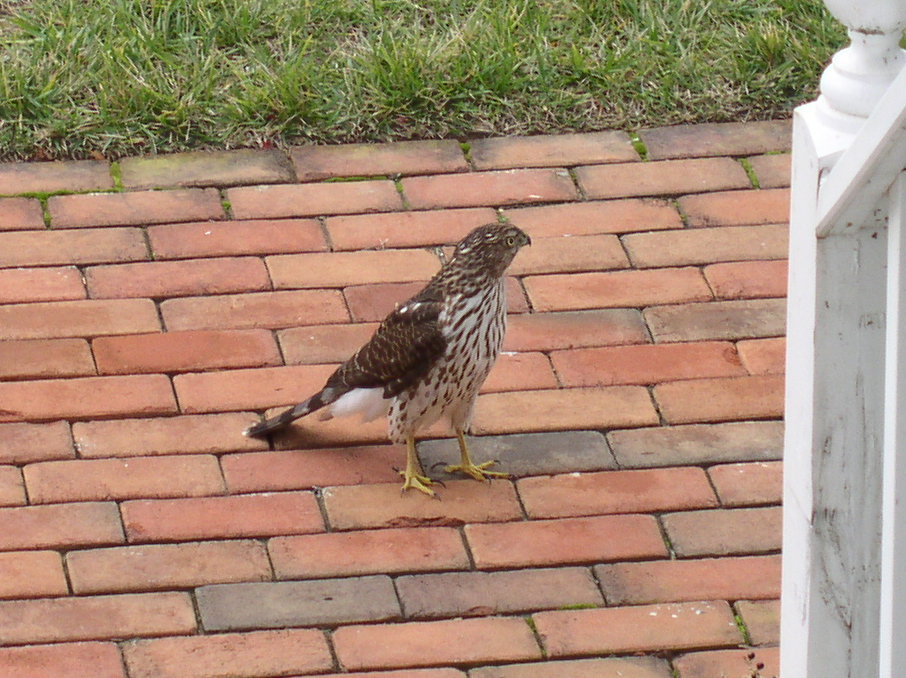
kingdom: Animalia
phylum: Chordata
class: Aves
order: Accipitriformes
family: Accipitridae
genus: Accipiter
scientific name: Accipiter cooperii
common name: Cooper's hawk
